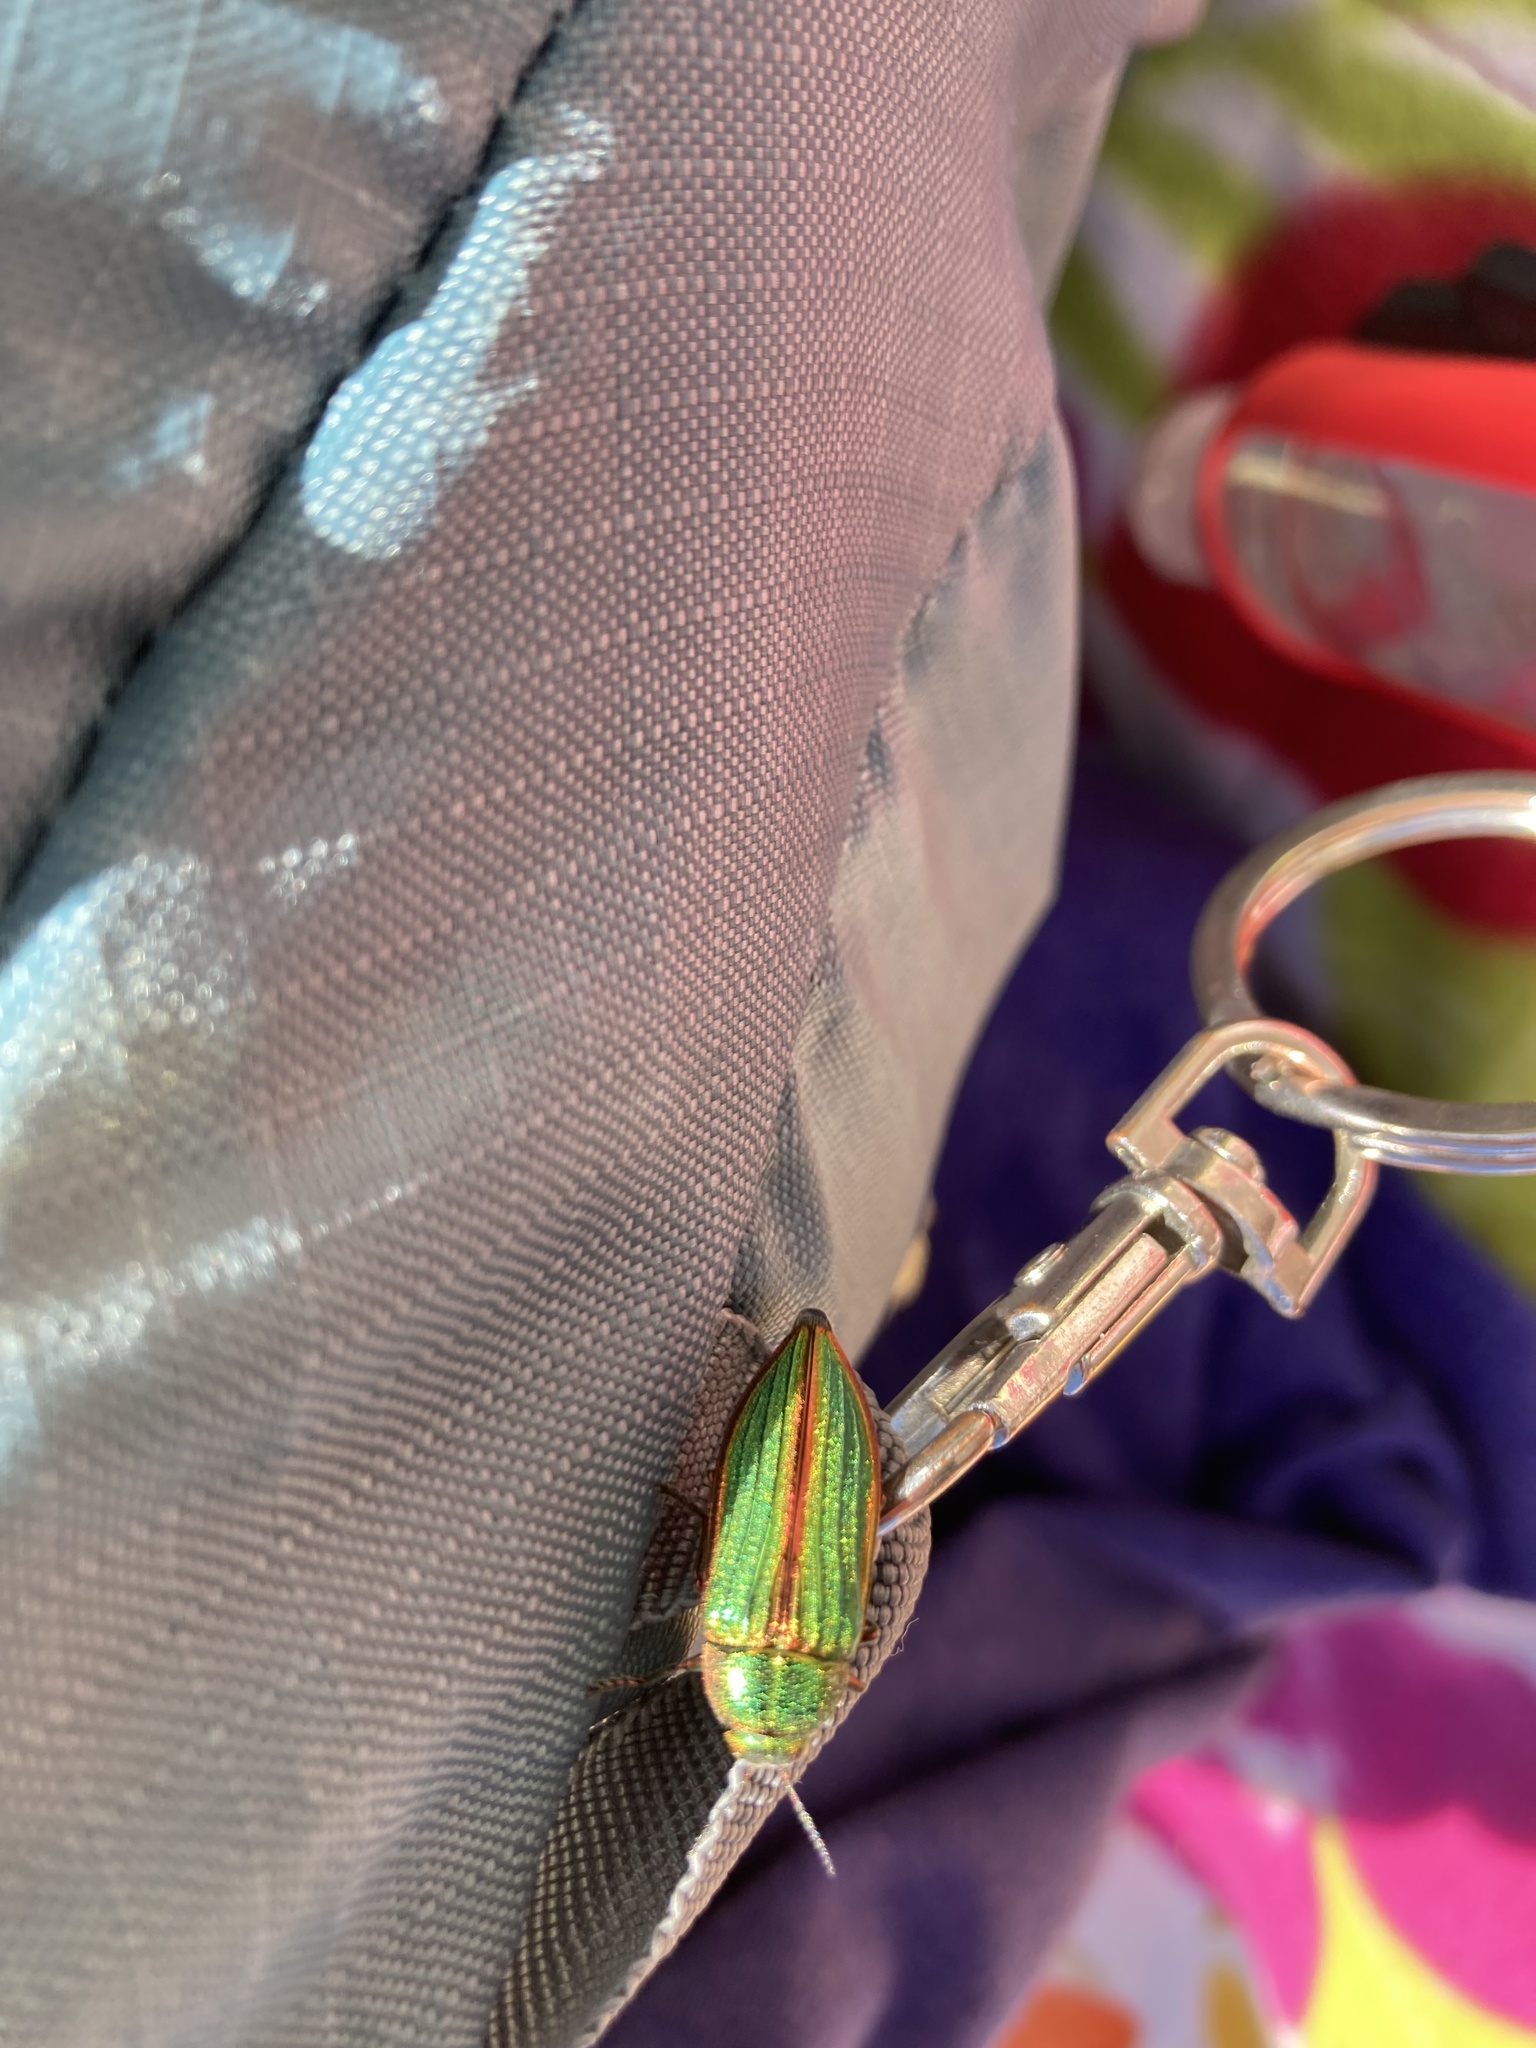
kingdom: Animalia
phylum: Arthropoda
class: Insecta
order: Coleoptera
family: Buprestidae
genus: Buprestis
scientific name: Buprestis aurulenta
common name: Golden buprestid
